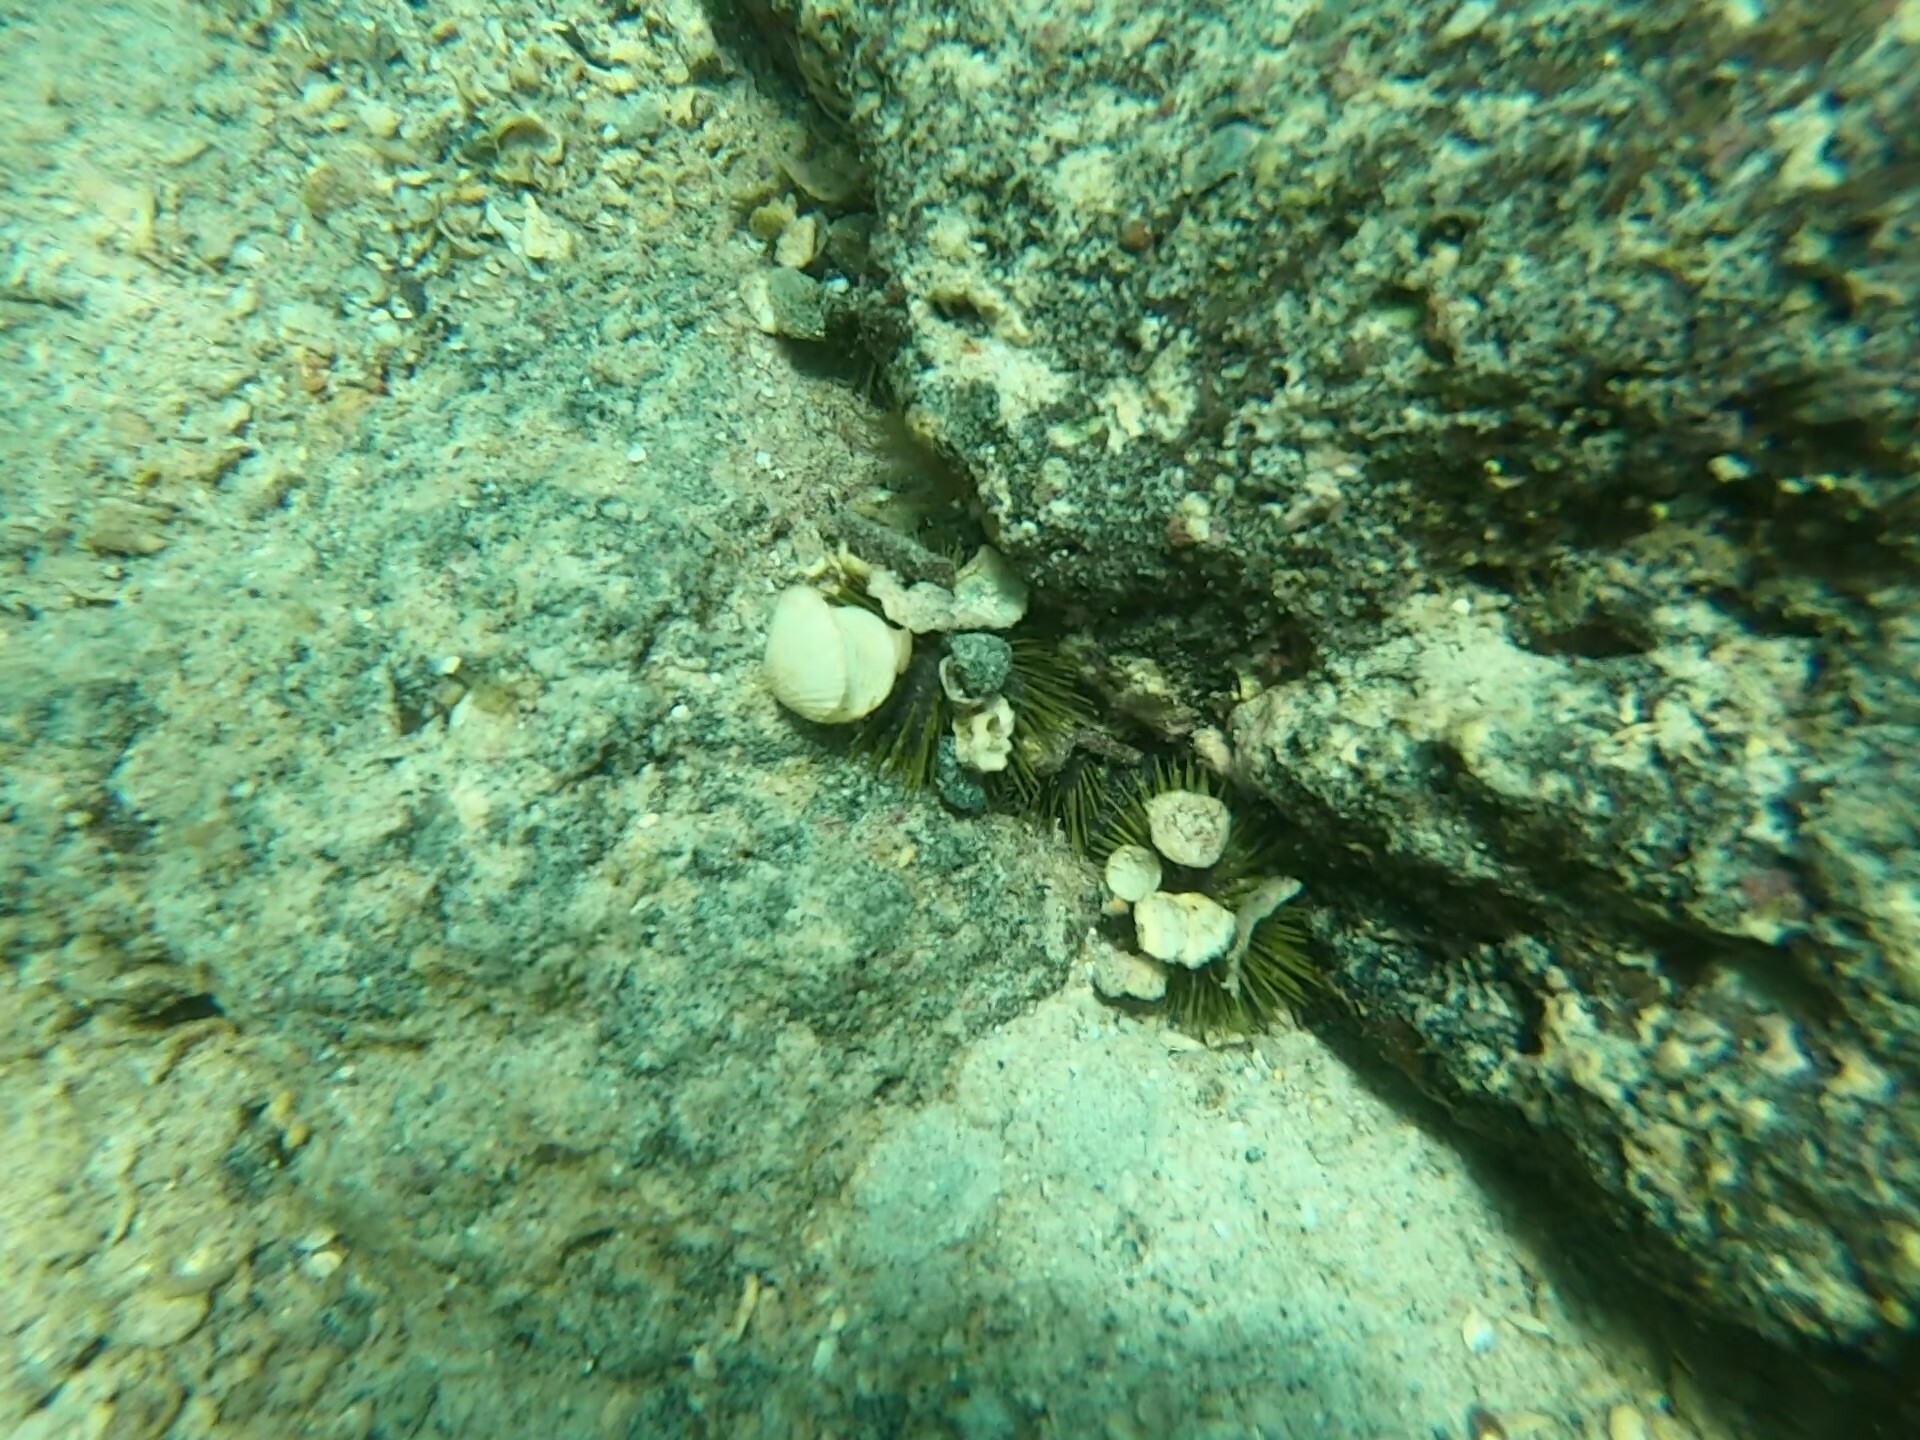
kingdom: Animalia
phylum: Echinodermata
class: Echinoidea
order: Camarodonta
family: Toxopneustidae
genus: Lytechinus
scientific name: Lytechinus semituberculatus
